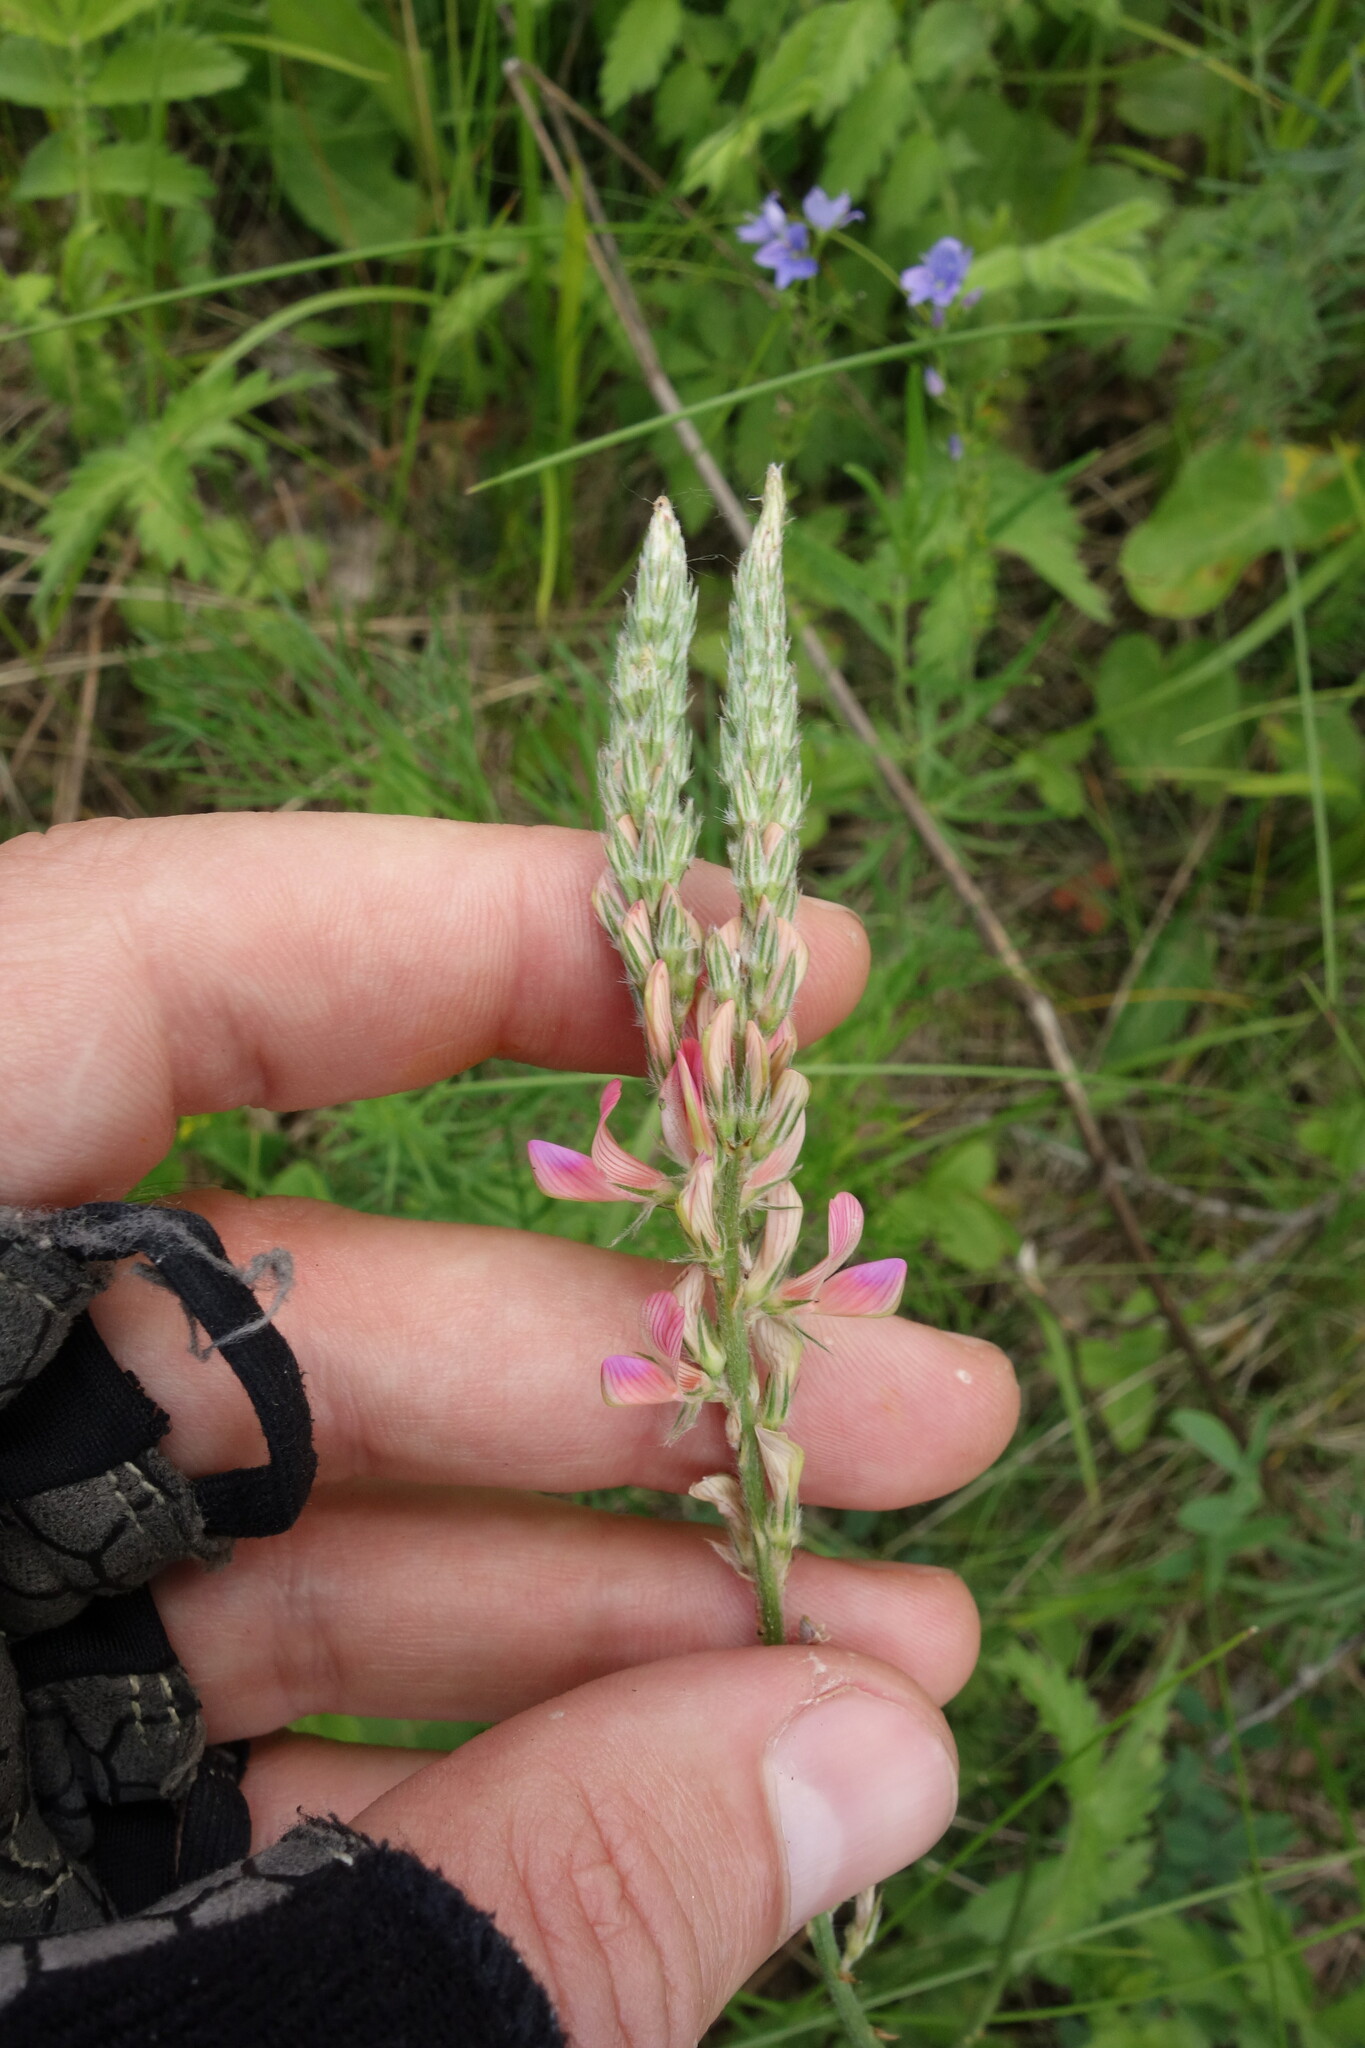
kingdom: Plantae
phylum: Tracheophyta
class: Magnoliopsida
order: Fabales
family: Fabaceae
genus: Onobrychis
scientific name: Onobrychis viciifolia
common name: Sainfoin
